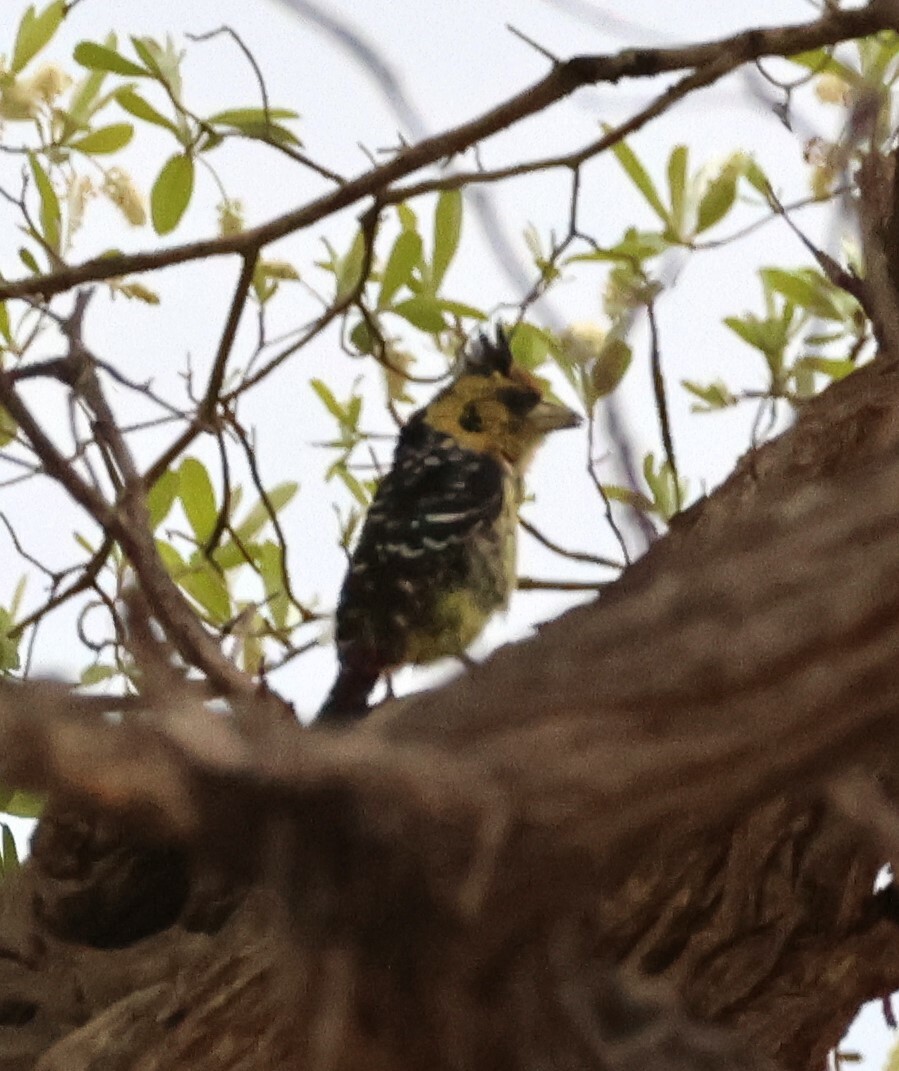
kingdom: Animalia
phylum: Chordata
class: Aves
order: Piciformes
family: Lybiidae
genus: Trachyphonus
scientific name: Trachyphonus vaillantii
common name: Crested barbet
